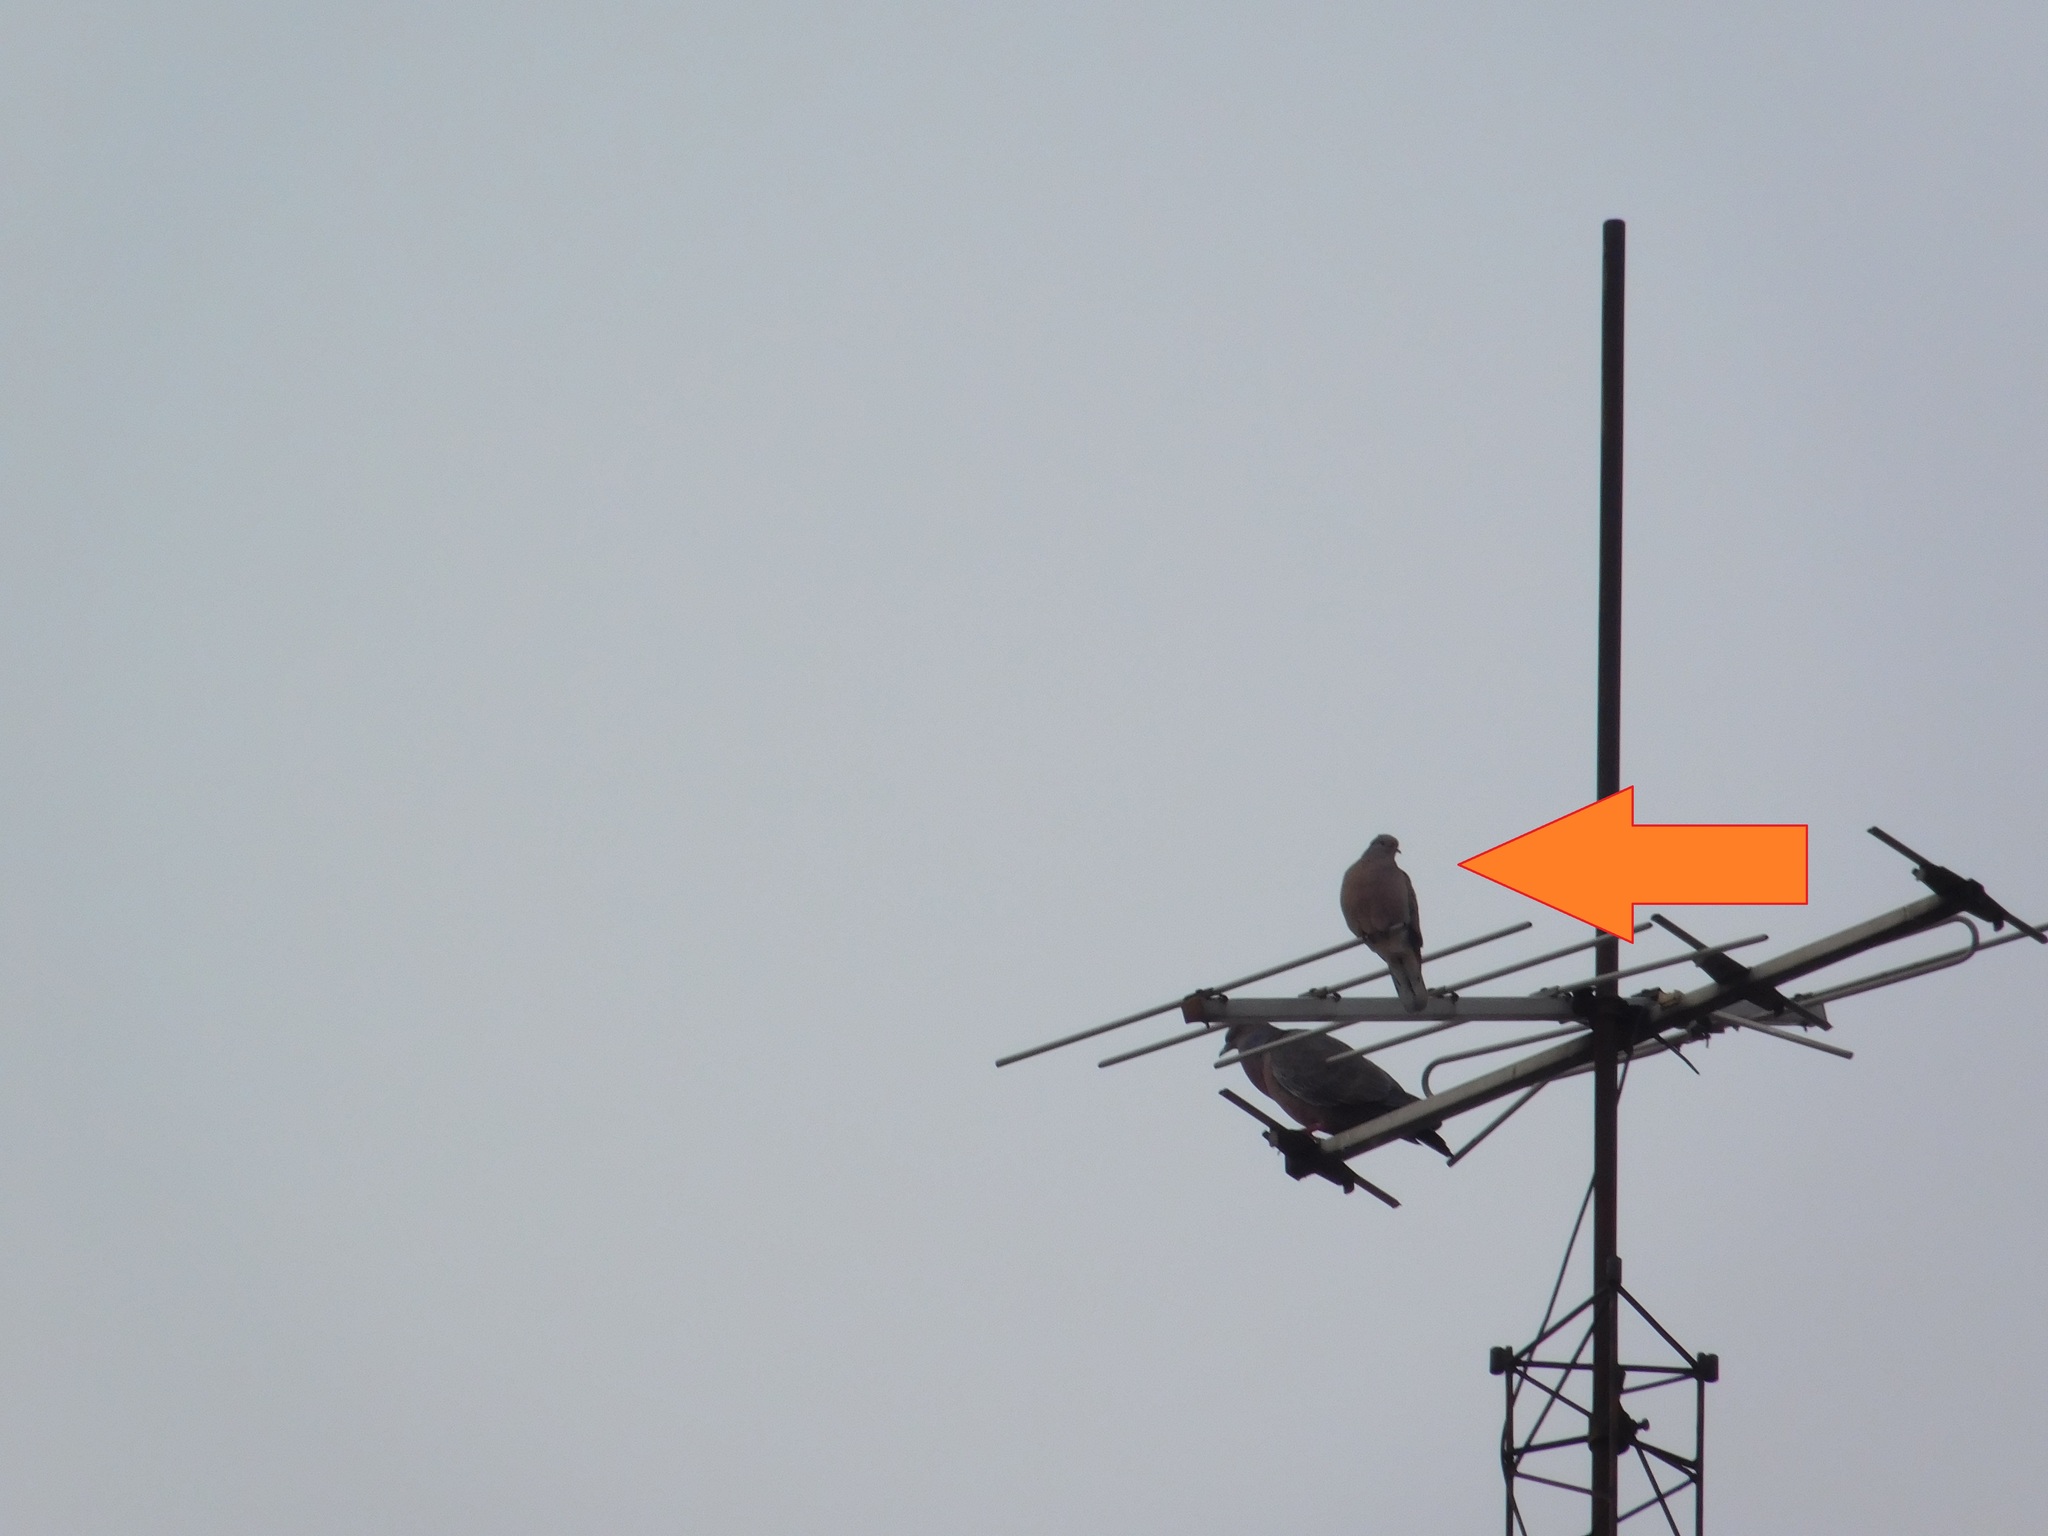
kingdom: Animalia
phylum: Chordata
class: Aves
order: Columbiformes
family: Columbidae
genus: Zenaida
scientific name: Zenaida auriculata
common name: Eared dove
